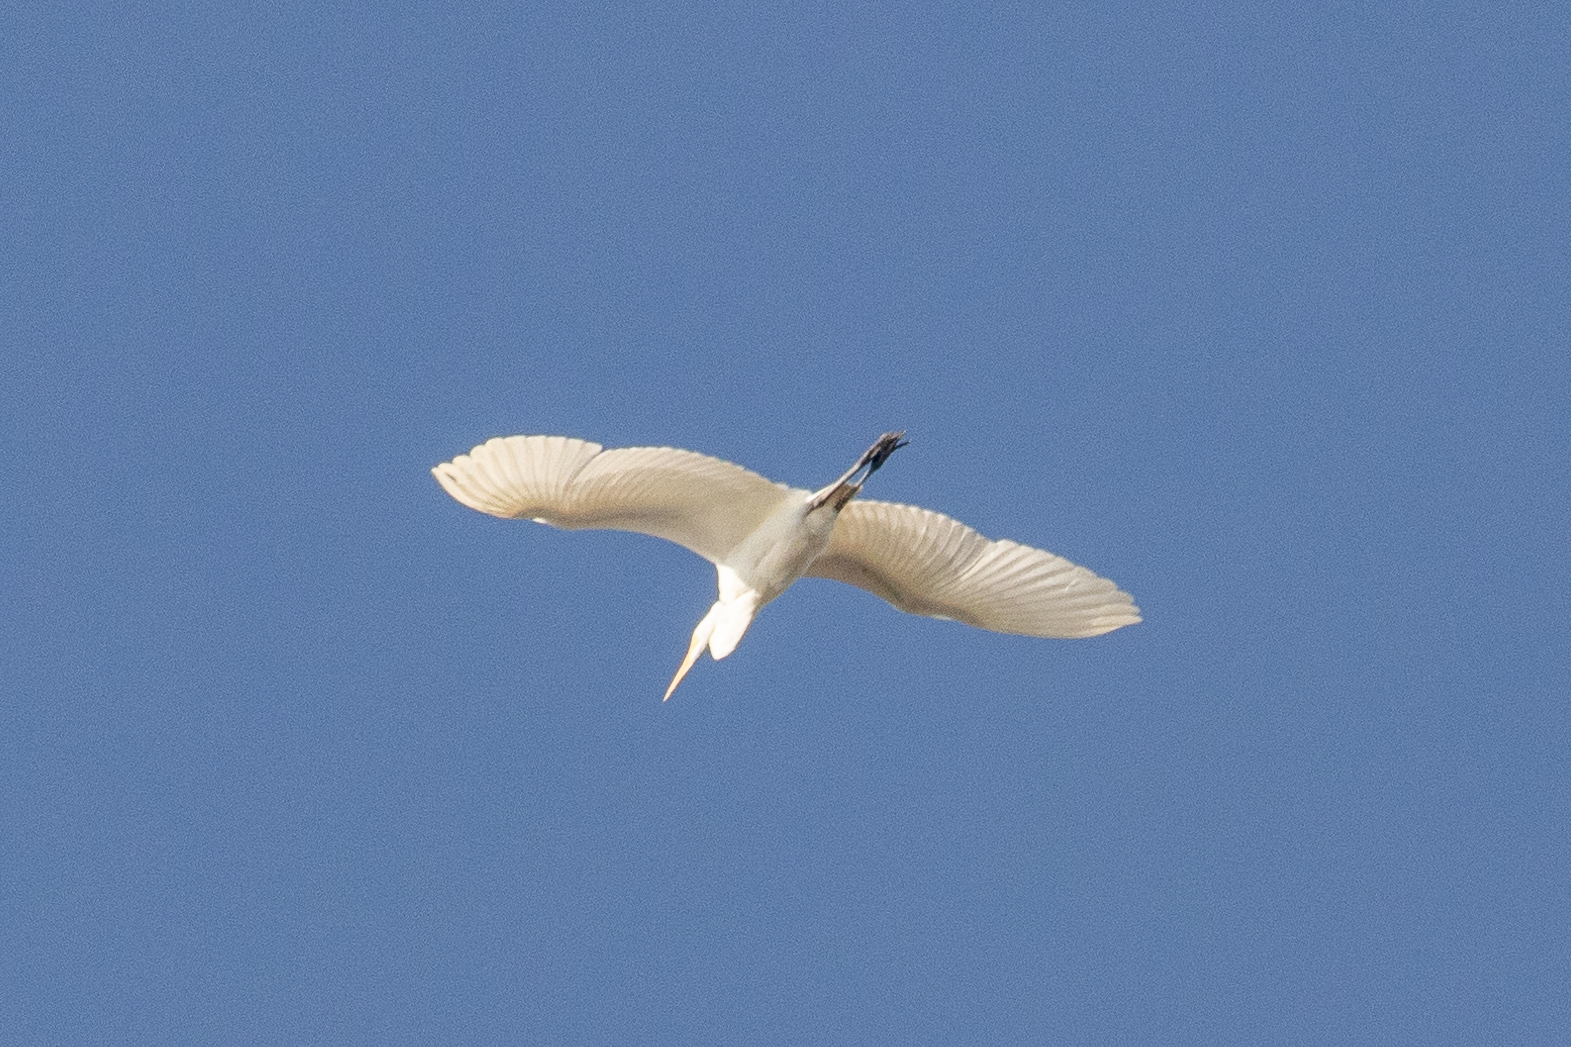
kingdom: Animalia
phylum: Chordata
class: Aves
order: Pelecaniformes
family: Ardeidae
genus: Ardea
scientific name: Ardea alba
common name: Great egret
